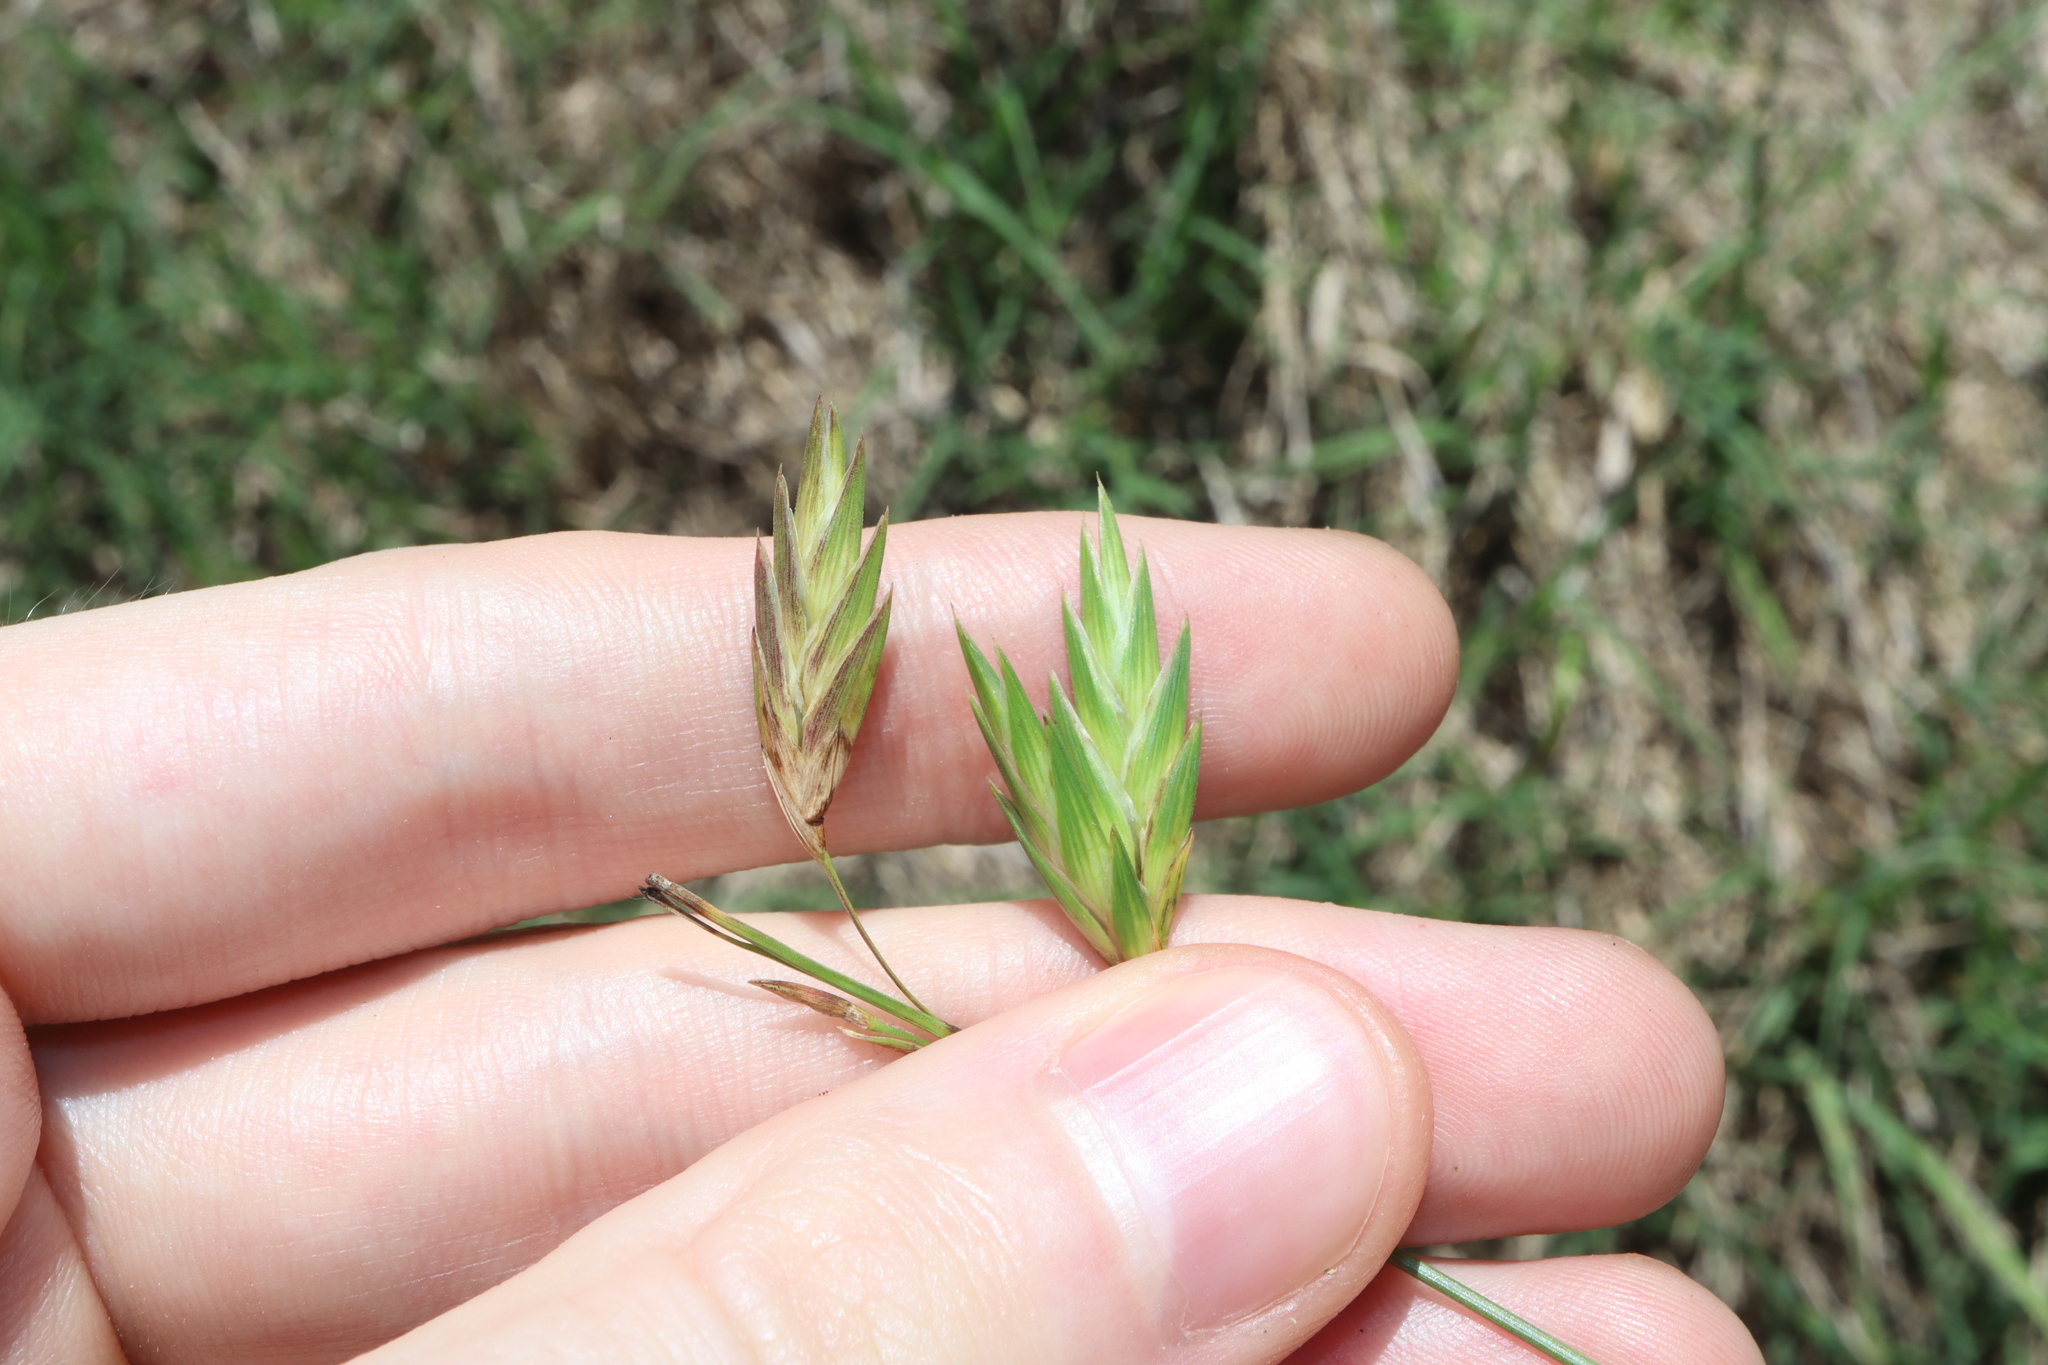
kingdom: Plantae
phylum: Tracheophyta
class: Liliopsida
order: Poales
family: Poaceae
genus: Bromus
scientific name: Bromus catharticus
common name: Rescuegrass
